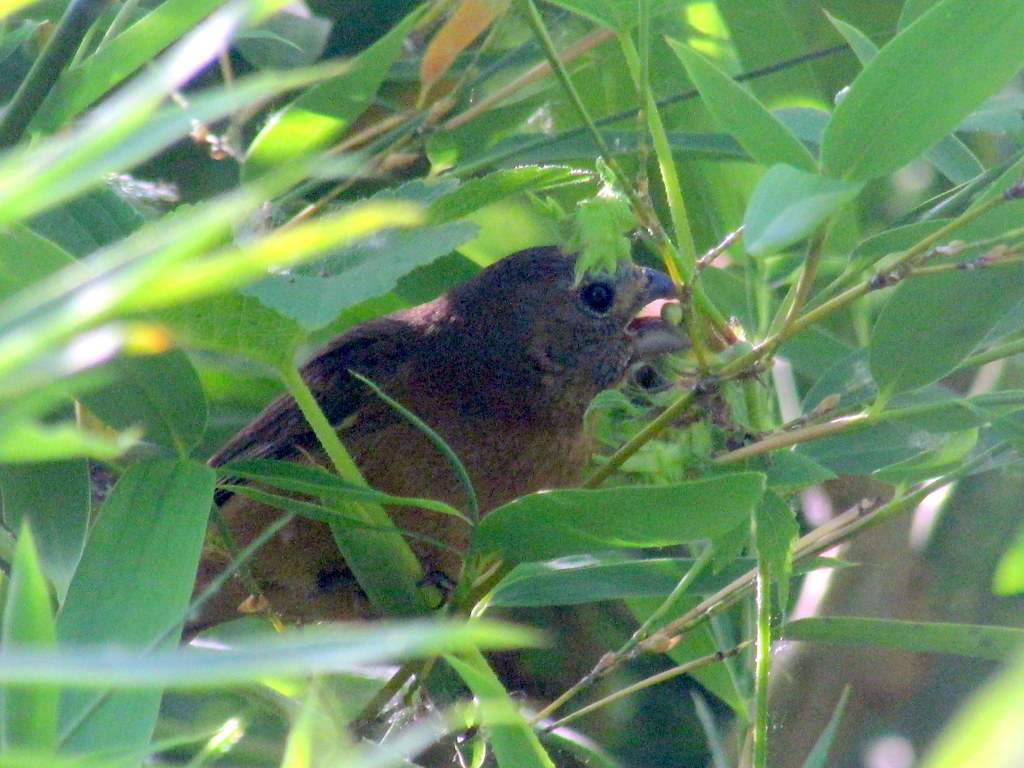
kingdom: Animalia
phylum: Chordata
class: Aves
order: Passeriformes
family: Cardinalidae
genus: Cyanoloxia
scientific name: Cyanoloxia glaucocaerulea
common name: Glaucous-blue grosbeak
